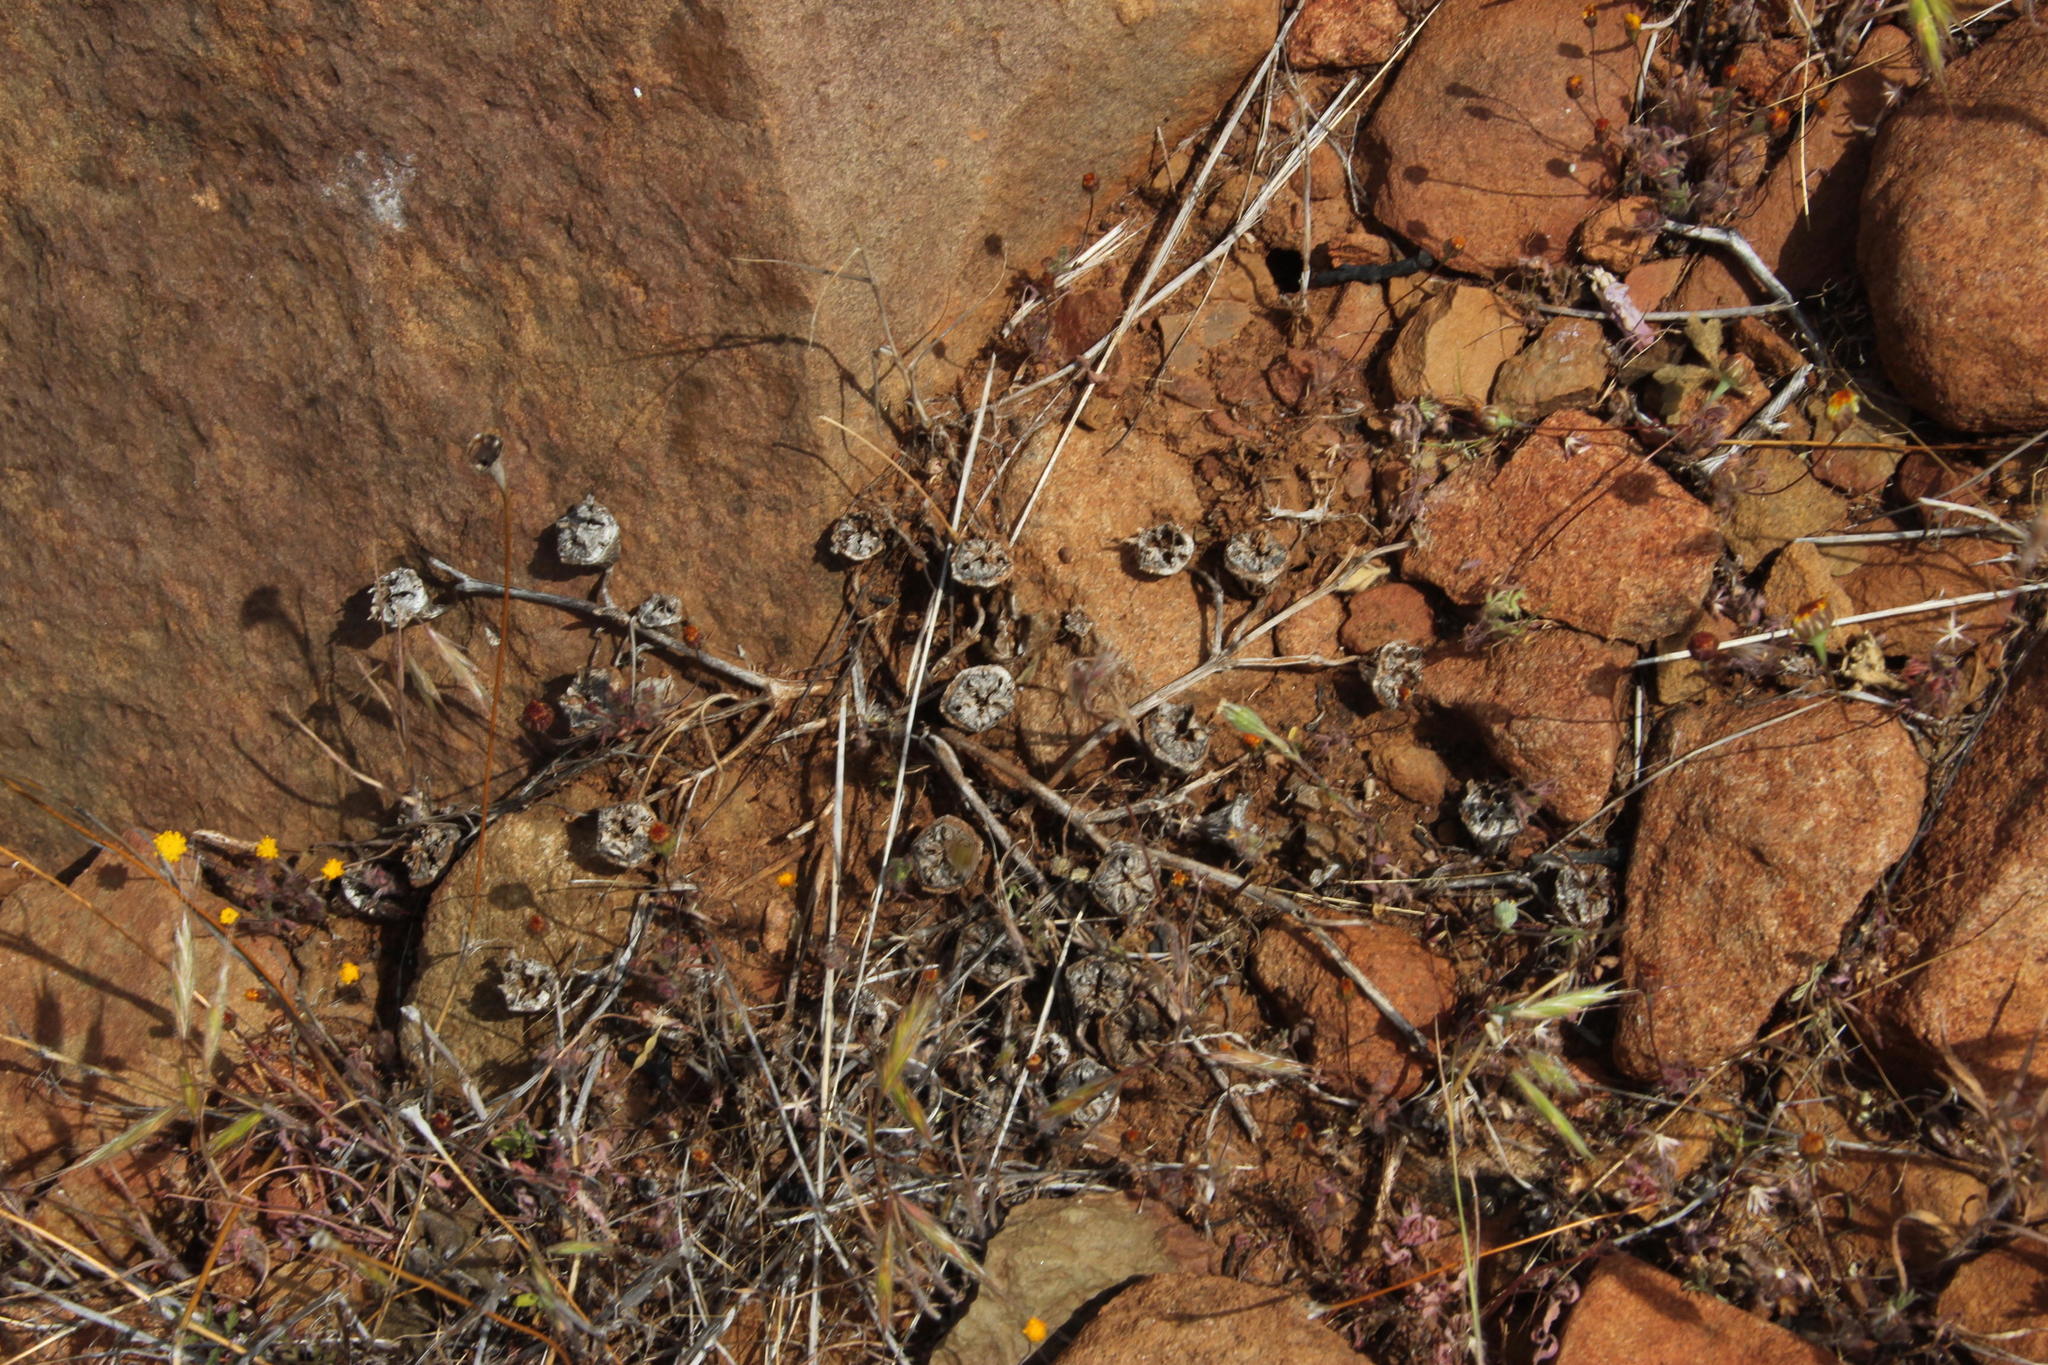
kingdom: Plantae
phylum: Tracheophyta
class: Magnoliopsida
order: Caryophyllales
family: Aizoaceae
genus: Cleretum
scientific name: Cleretum papulosum
